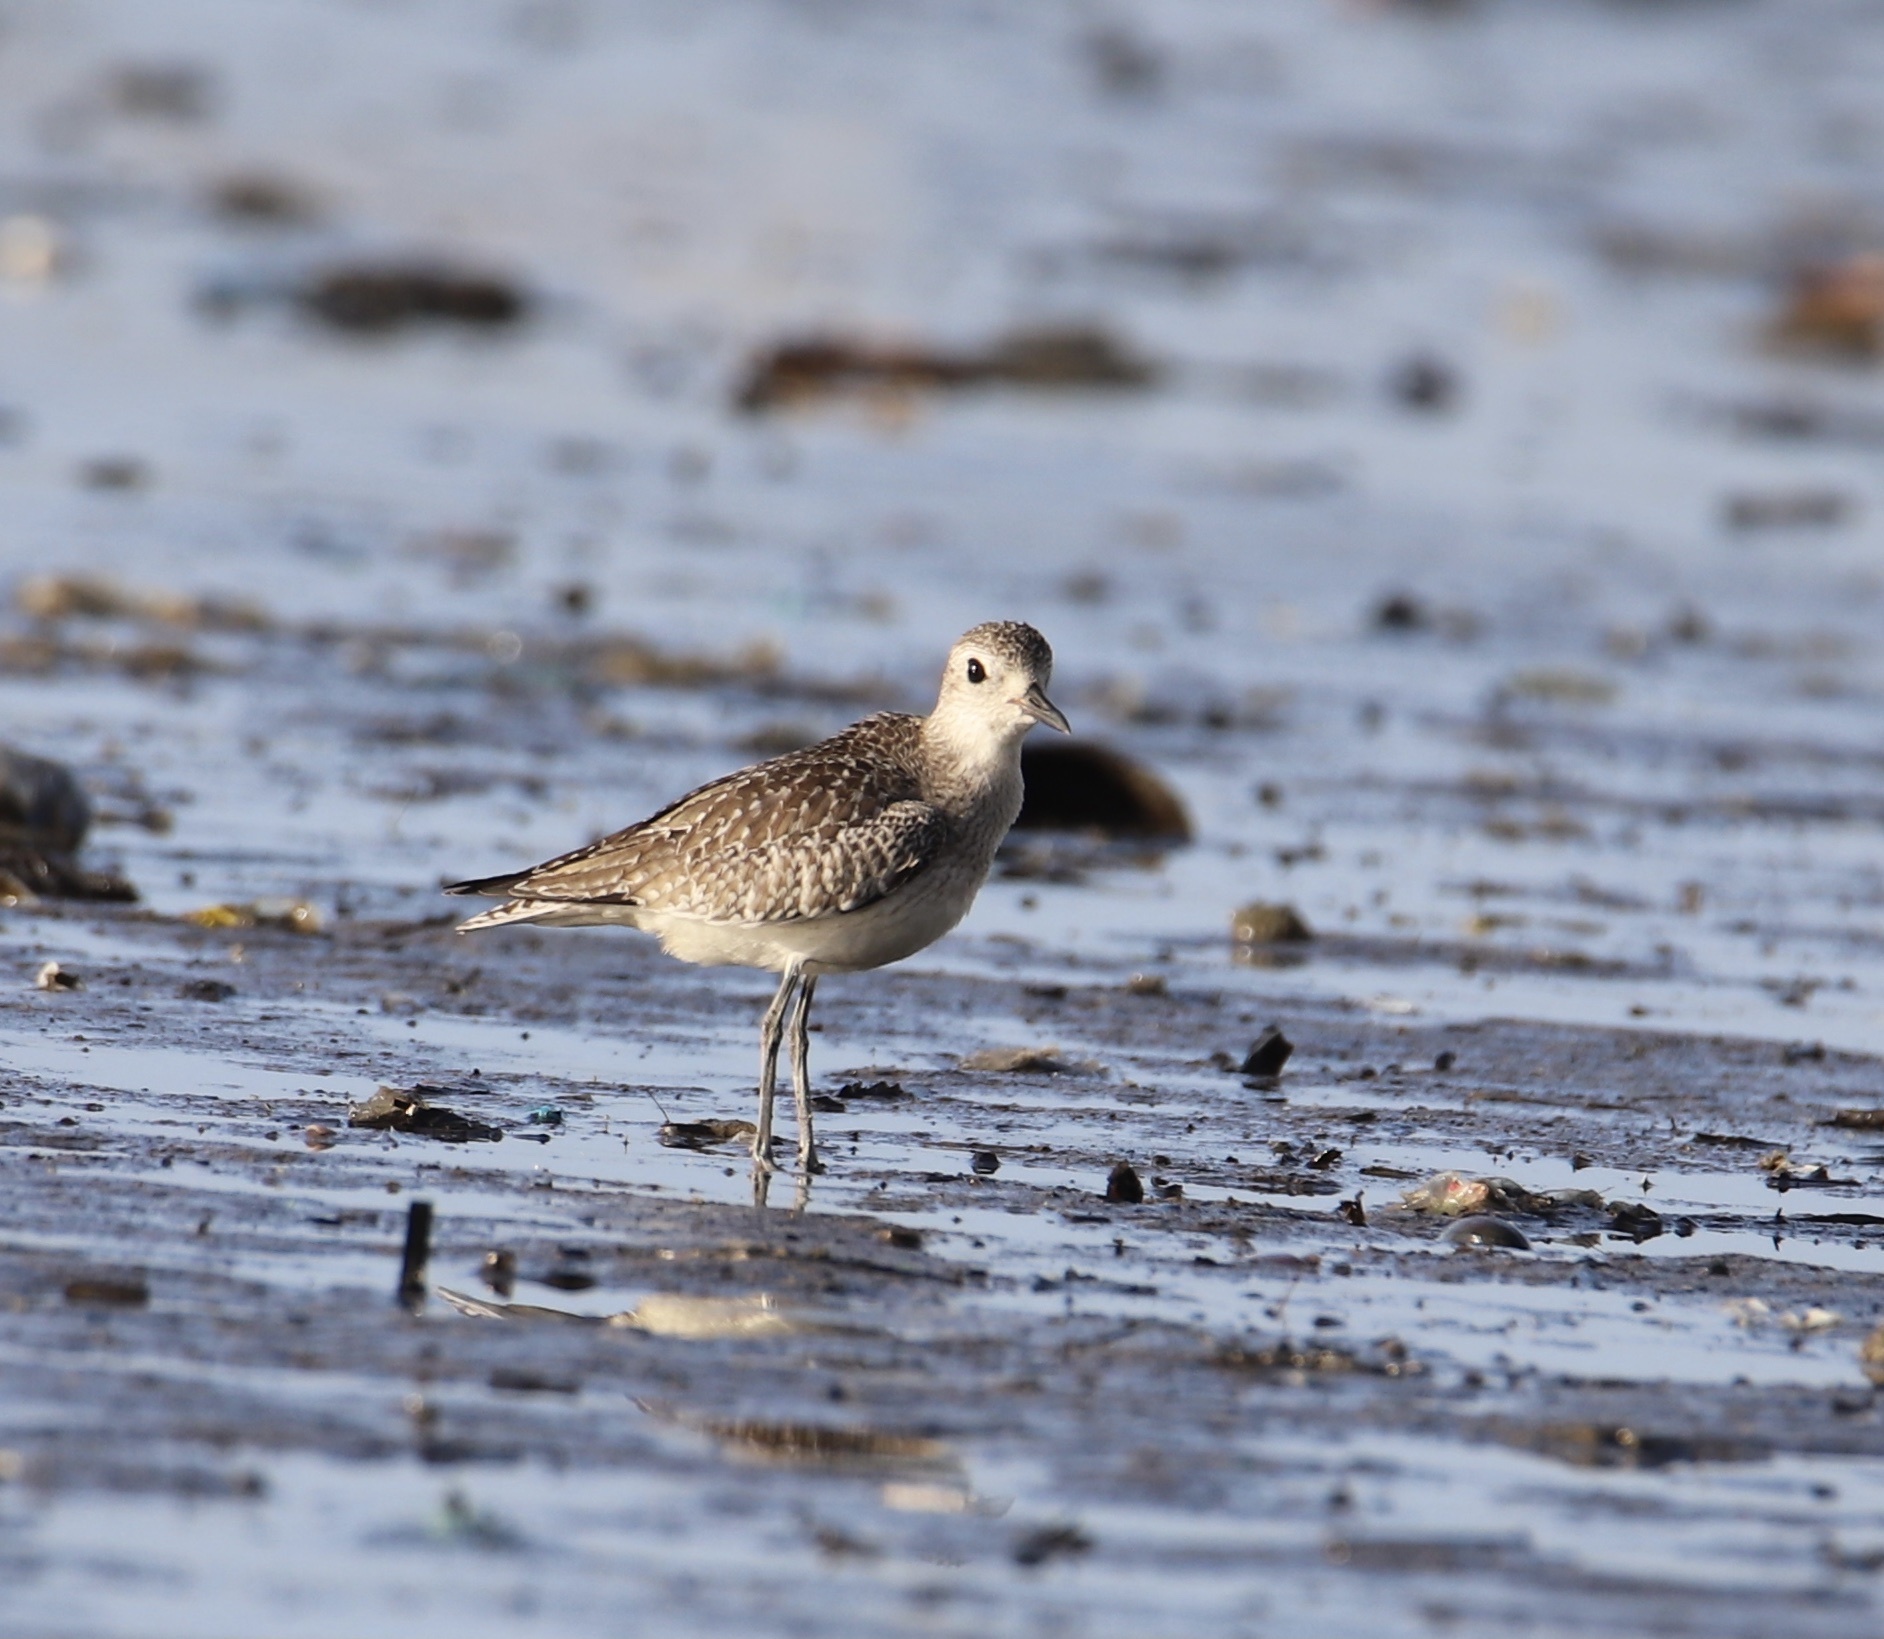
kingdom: Animalia
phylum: Chordata
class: Aves
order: Charadriiformes
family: Charadriidae
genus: Pluvialis
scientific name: Pluvialis squatarola
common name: Grey plover
